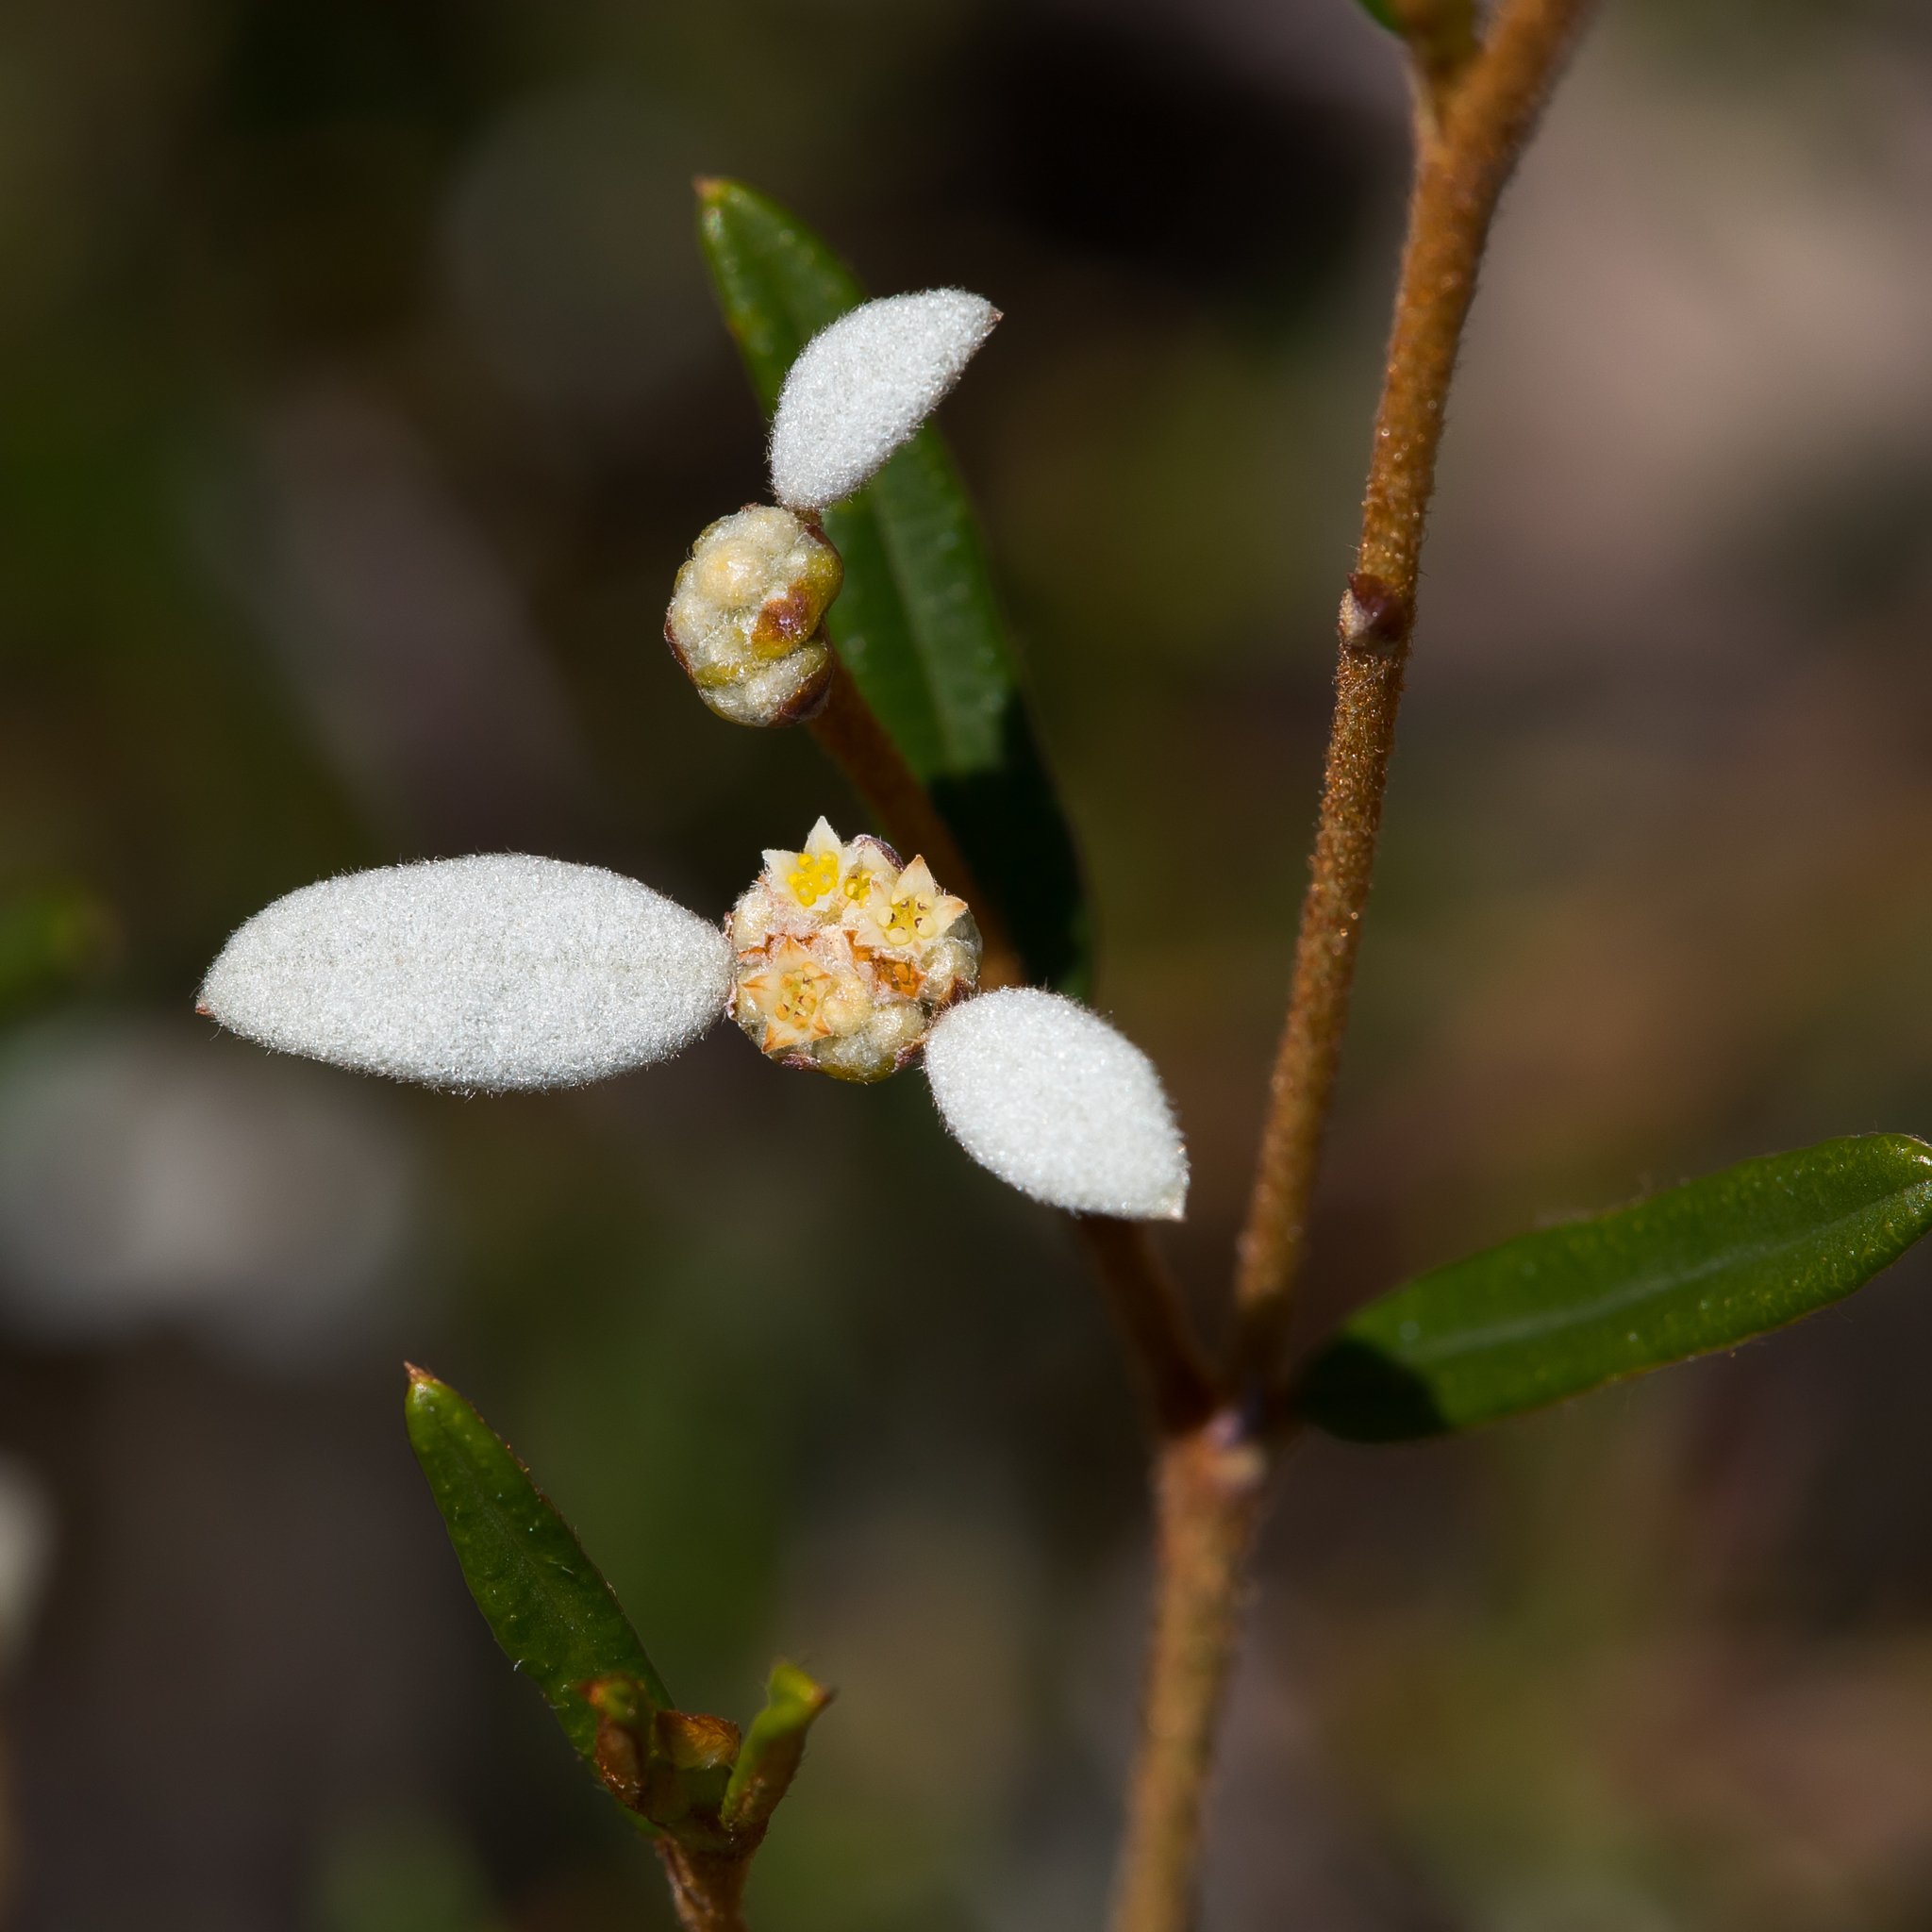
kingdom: Plantae
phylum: Tracheophyta
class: Magnoliopsida
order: Rosales
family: Rhamnaceae
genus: Spyridium
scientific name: Spyridium vexilliferum
